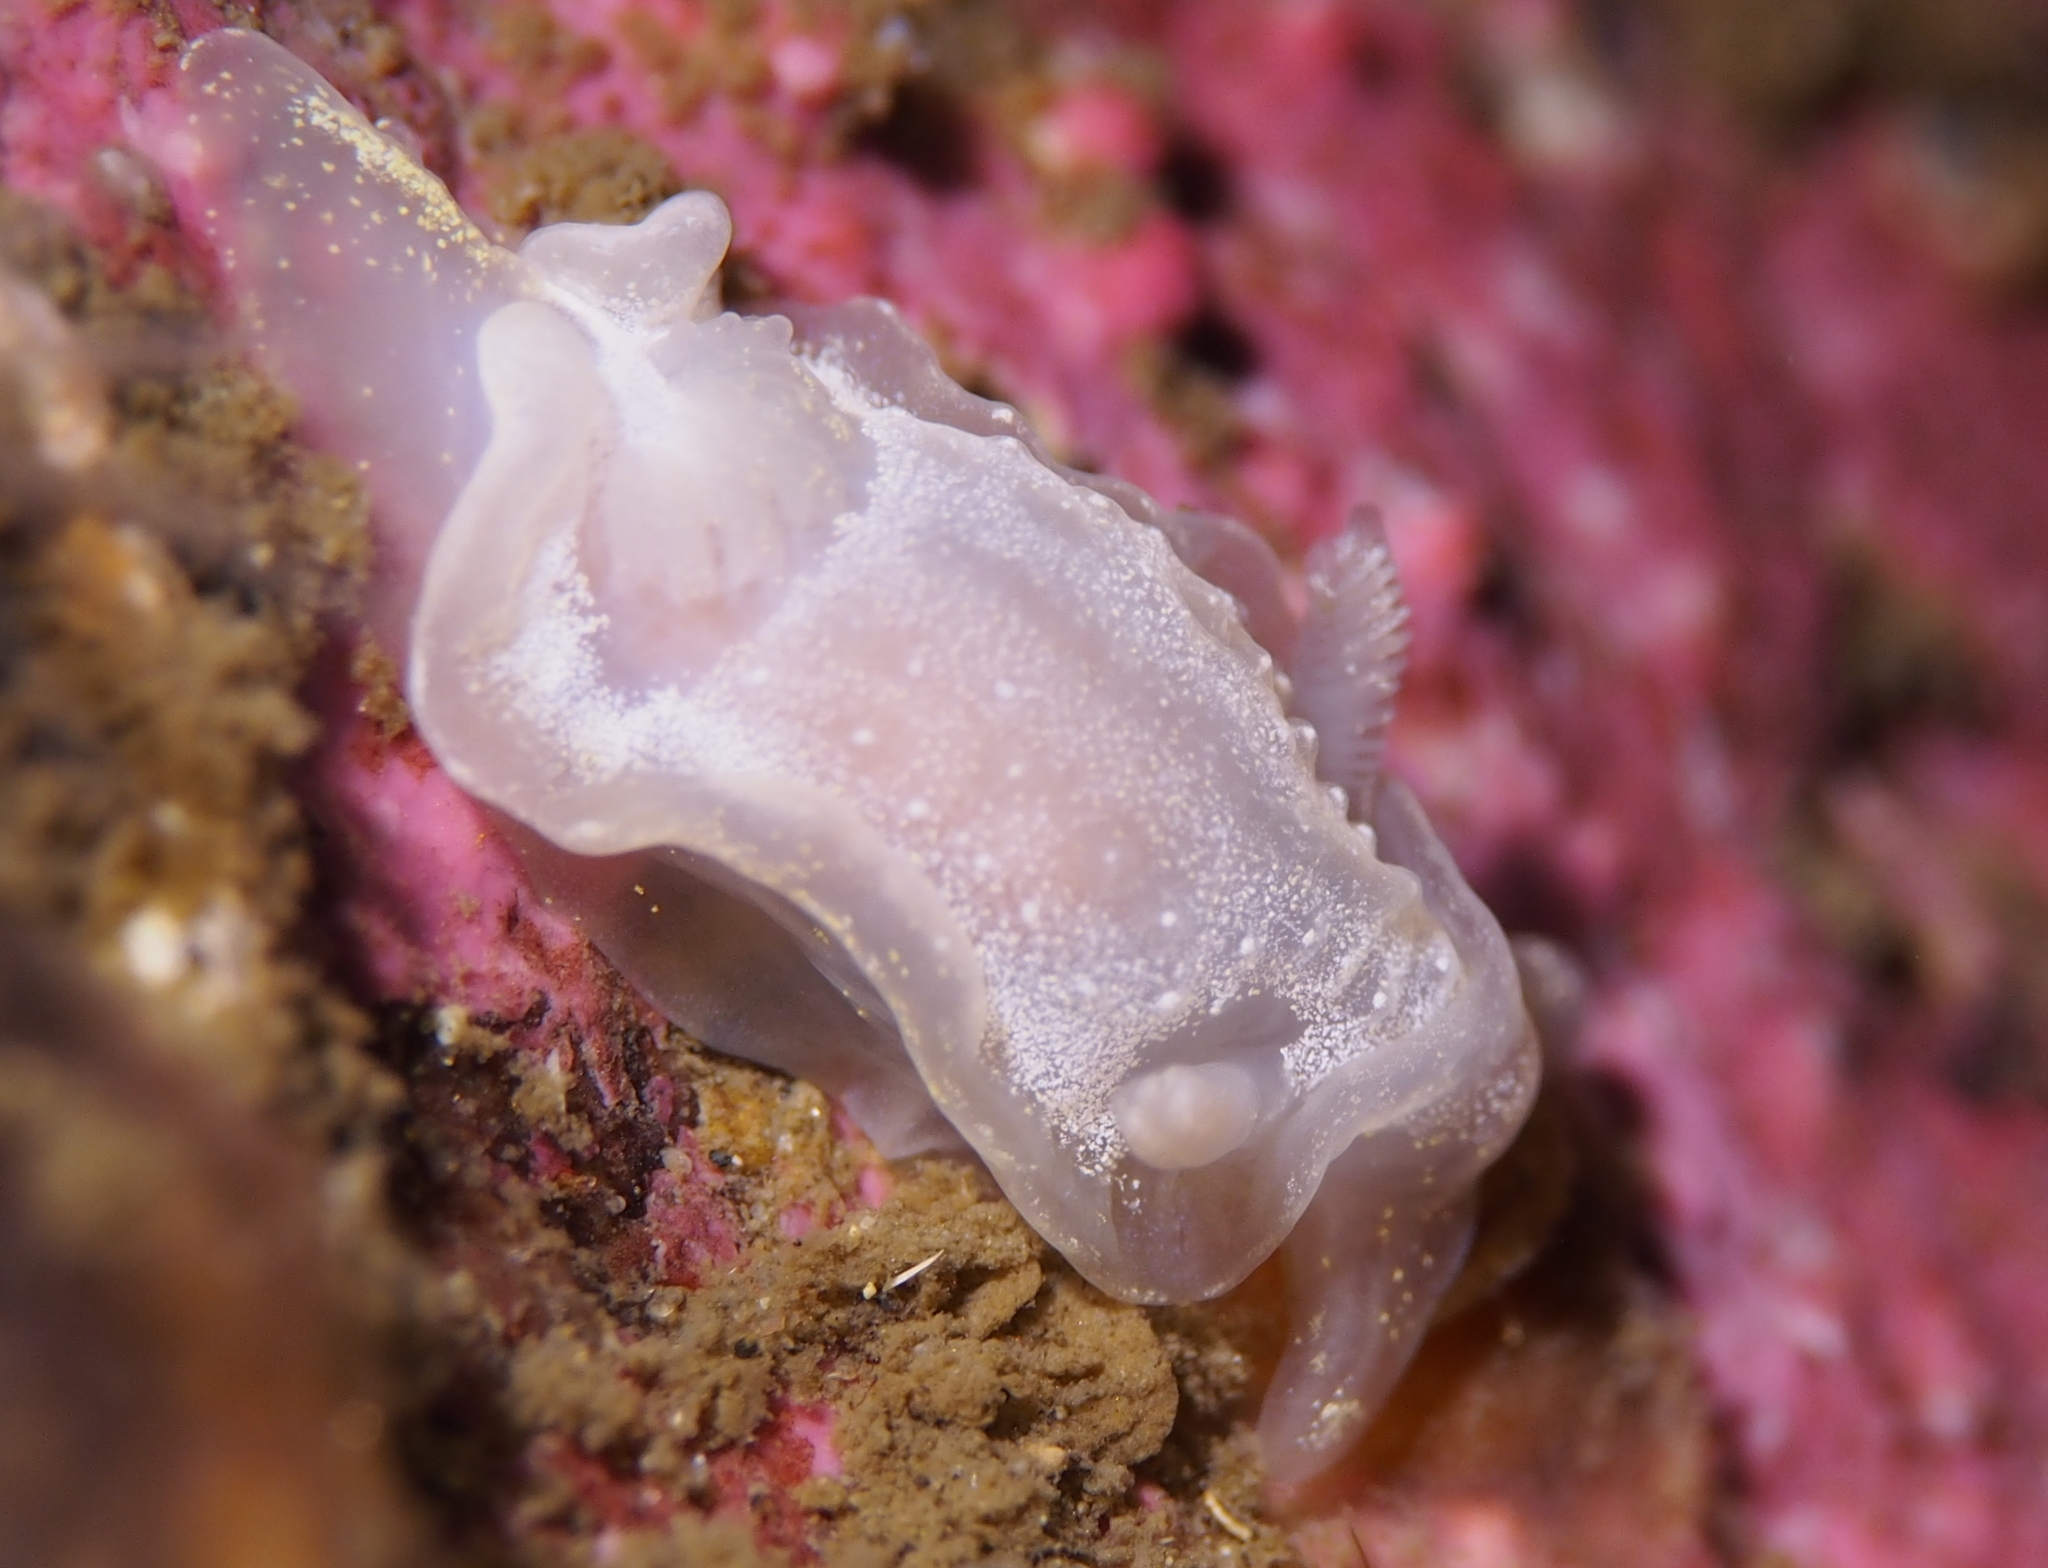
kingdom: Animalia
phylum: Mollusca
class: Gastropoda
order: Nudibranchia
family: Goniodorididae
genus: Okenia
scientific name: Okenia
